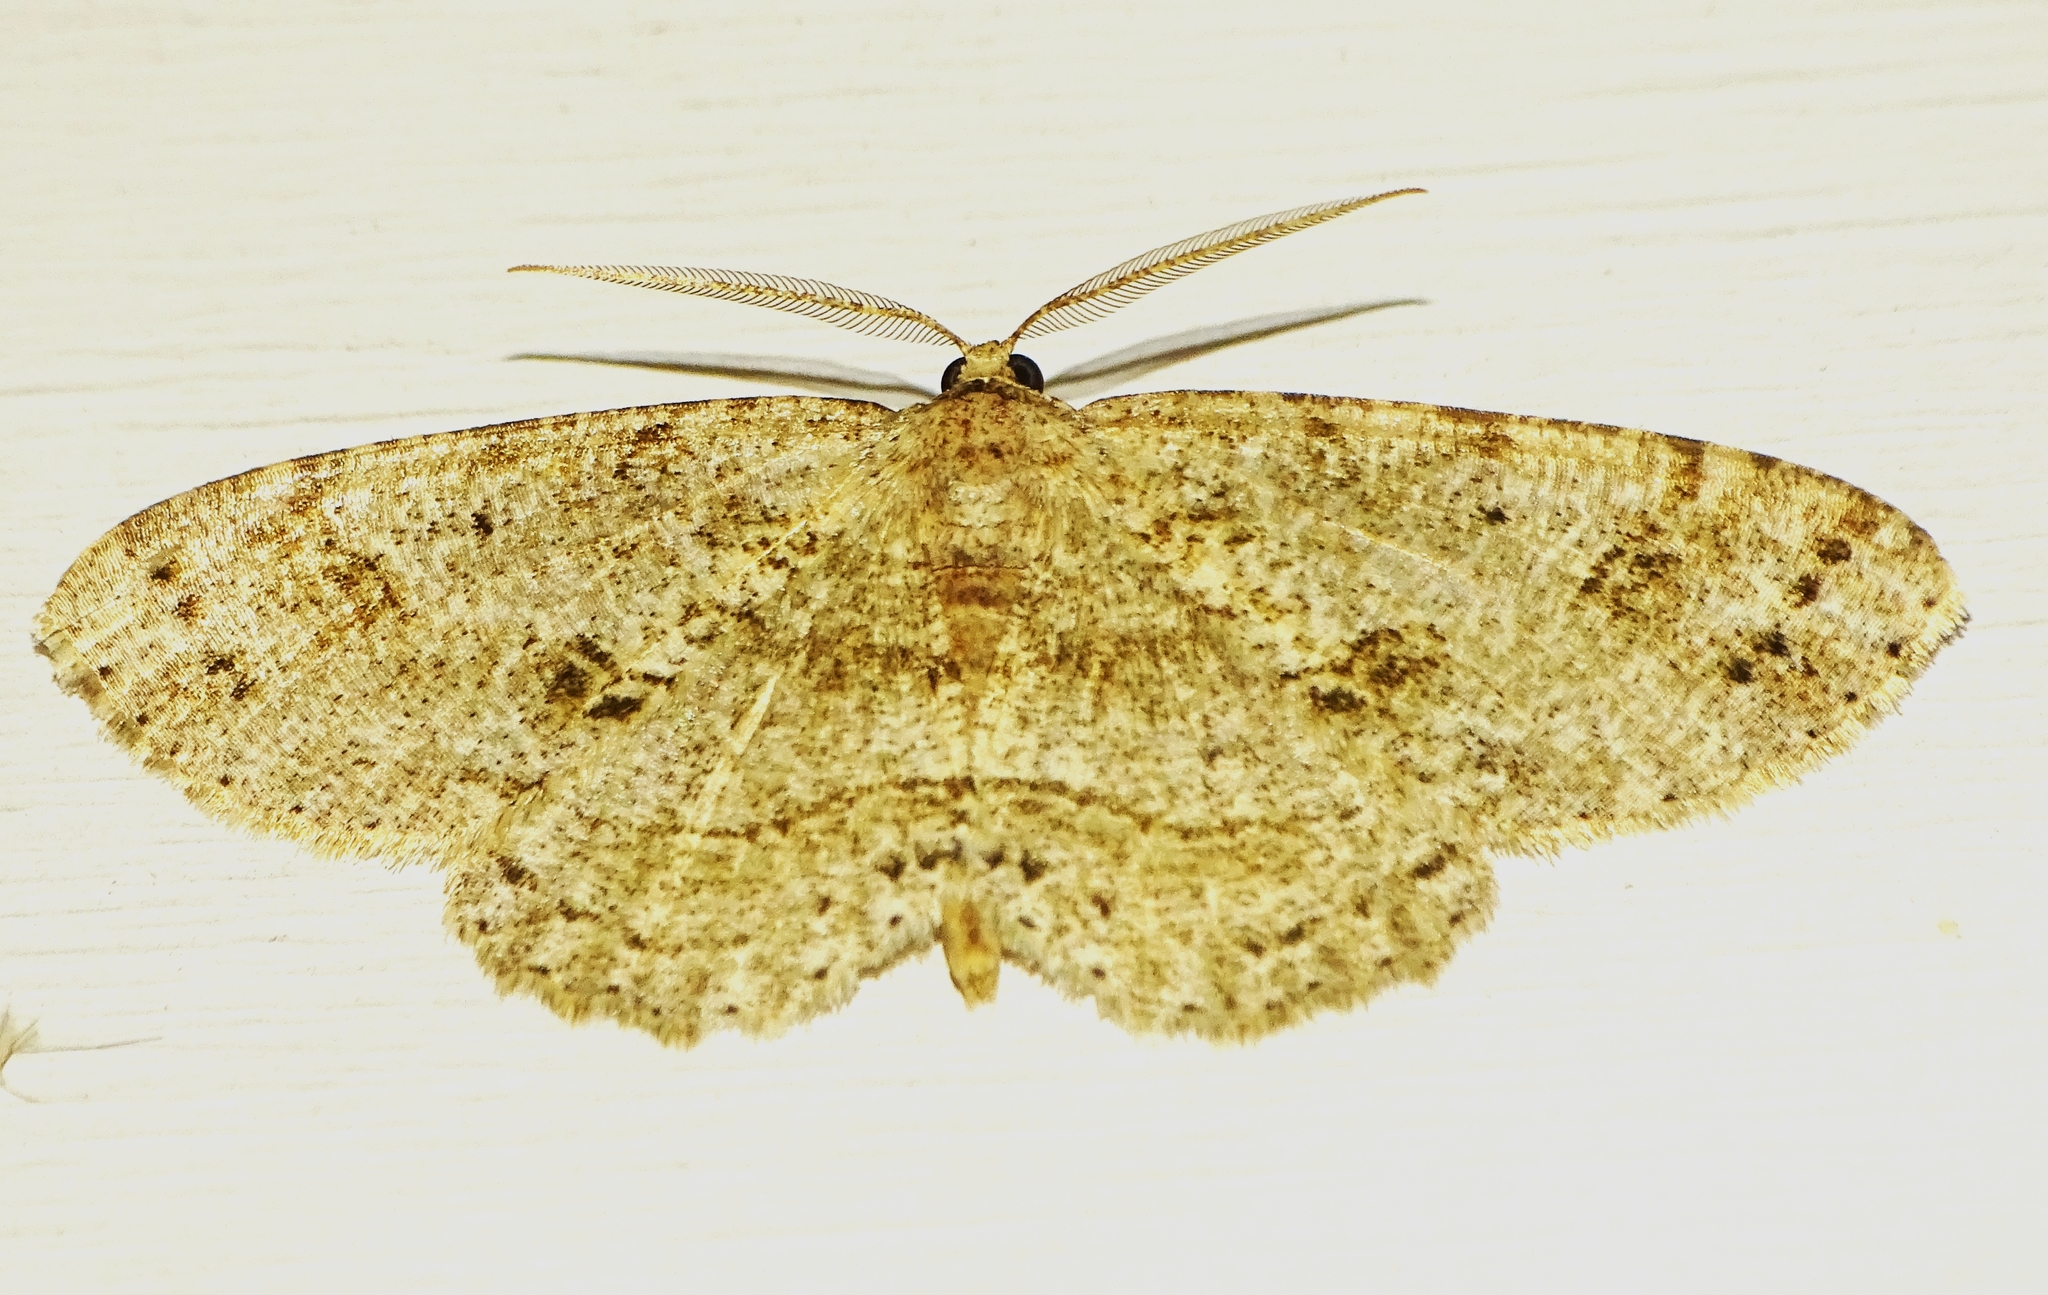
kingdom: Animalia
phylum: Arthropoda
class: Insecta
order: Lepidoptera
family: Geometridae
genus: Melanolophia
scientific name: Melanolophia canadaria
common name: Canadian melanolophia
